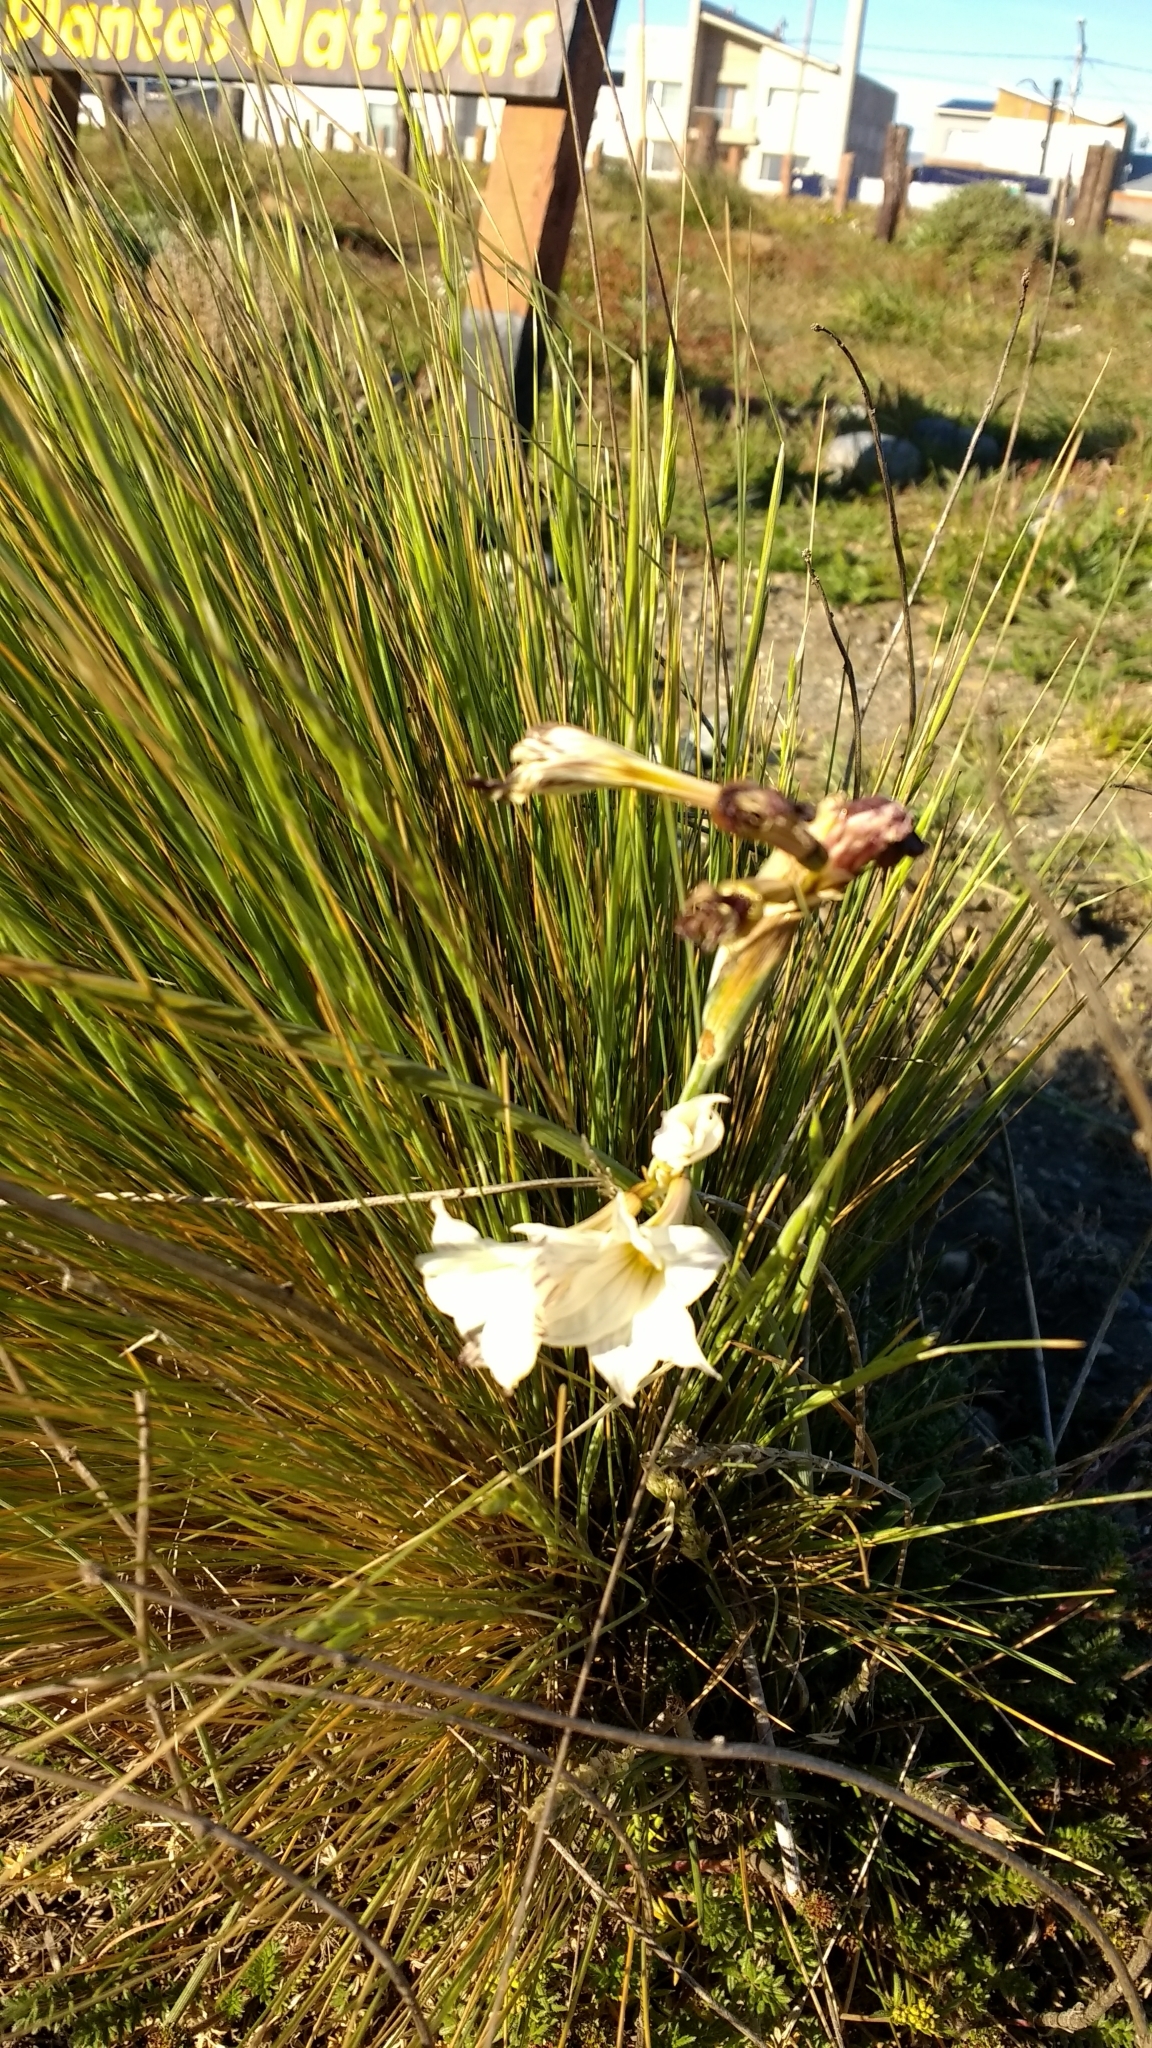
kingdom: Plantae
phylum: Tracheophyta
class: Liliopsida
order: Asparagales
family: Iridaceae
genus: Olsynium
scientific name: Olsynium biflorum
